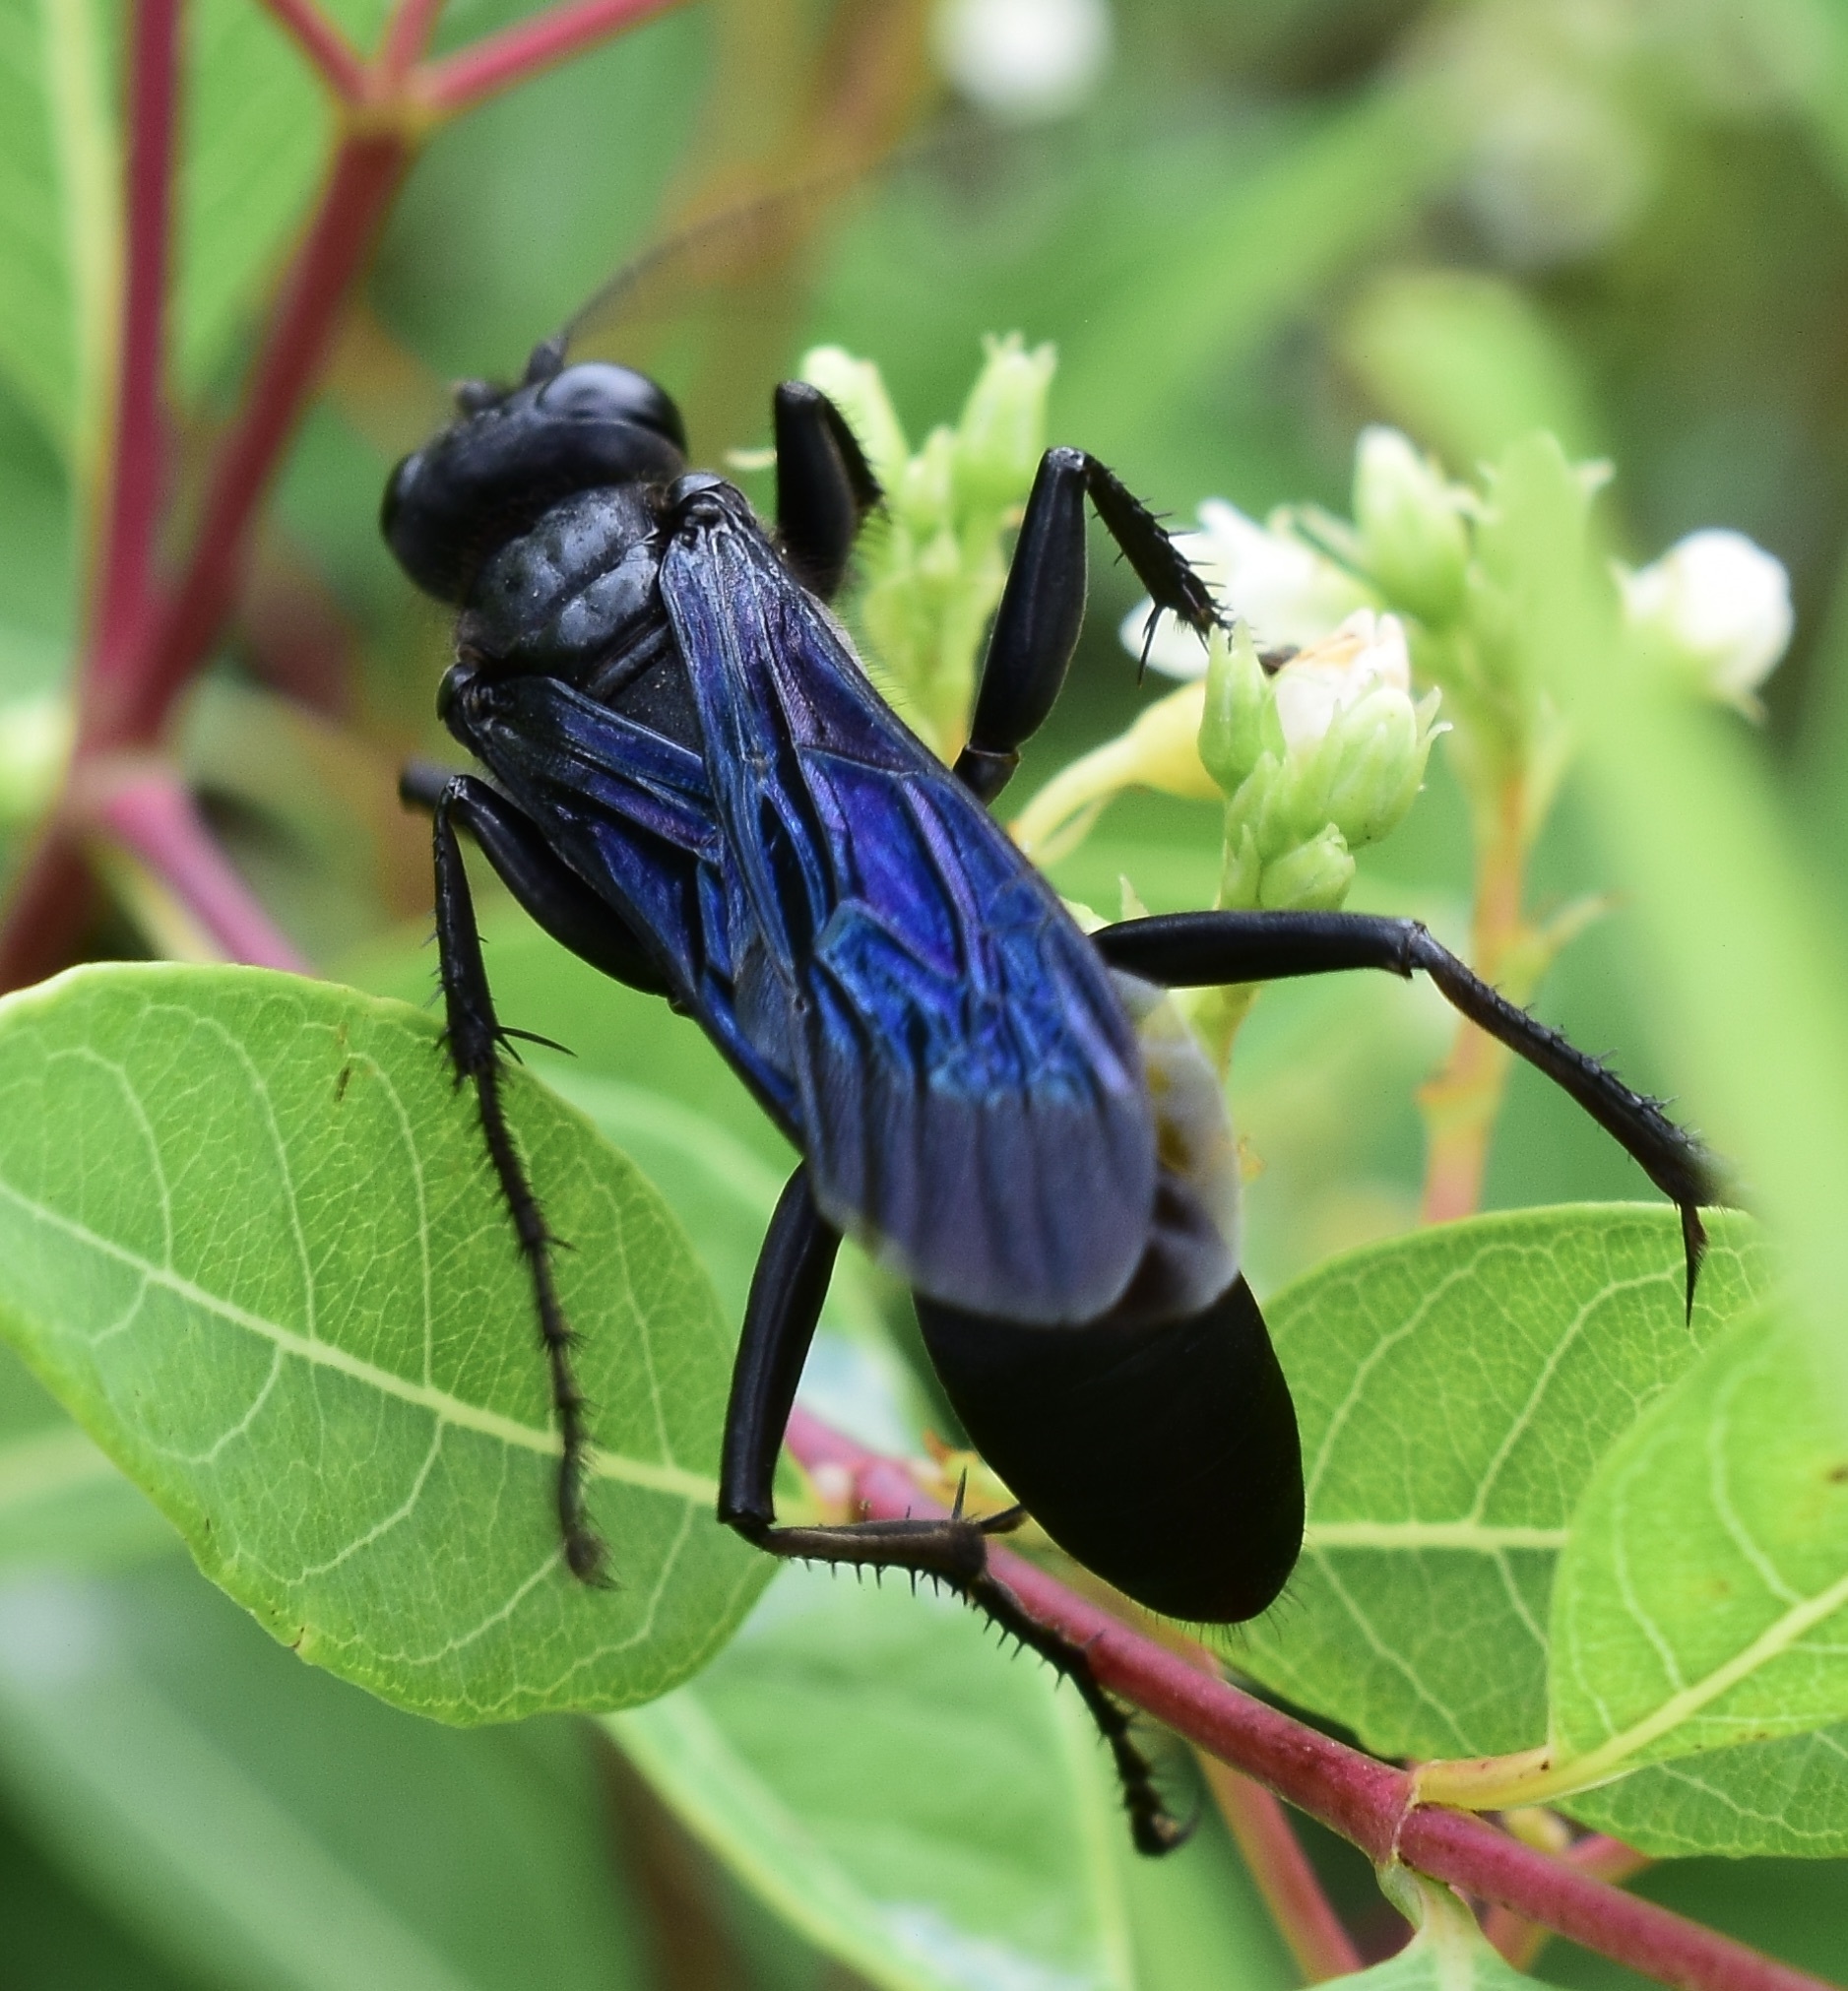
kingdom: Animalia
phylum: Arthropoda
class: Insecta
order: Hymenoptera
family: Sphecidae
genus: Sphex
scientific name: Sphex pensylvanicus
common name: Great black digger wasp
